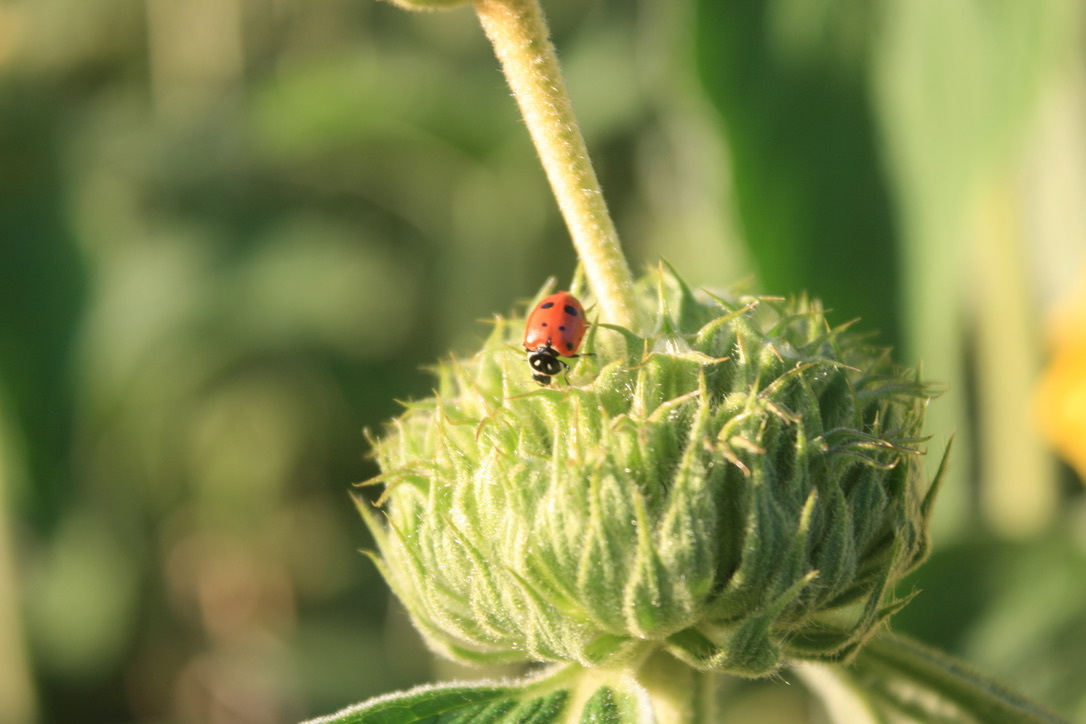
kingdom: Animalia
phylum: Arthropoda
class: Insecta
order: Coleoptera
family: Coccinellidae
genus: Hippodamia
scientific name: Hippodamia convergens
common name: Convergent lady beetle
